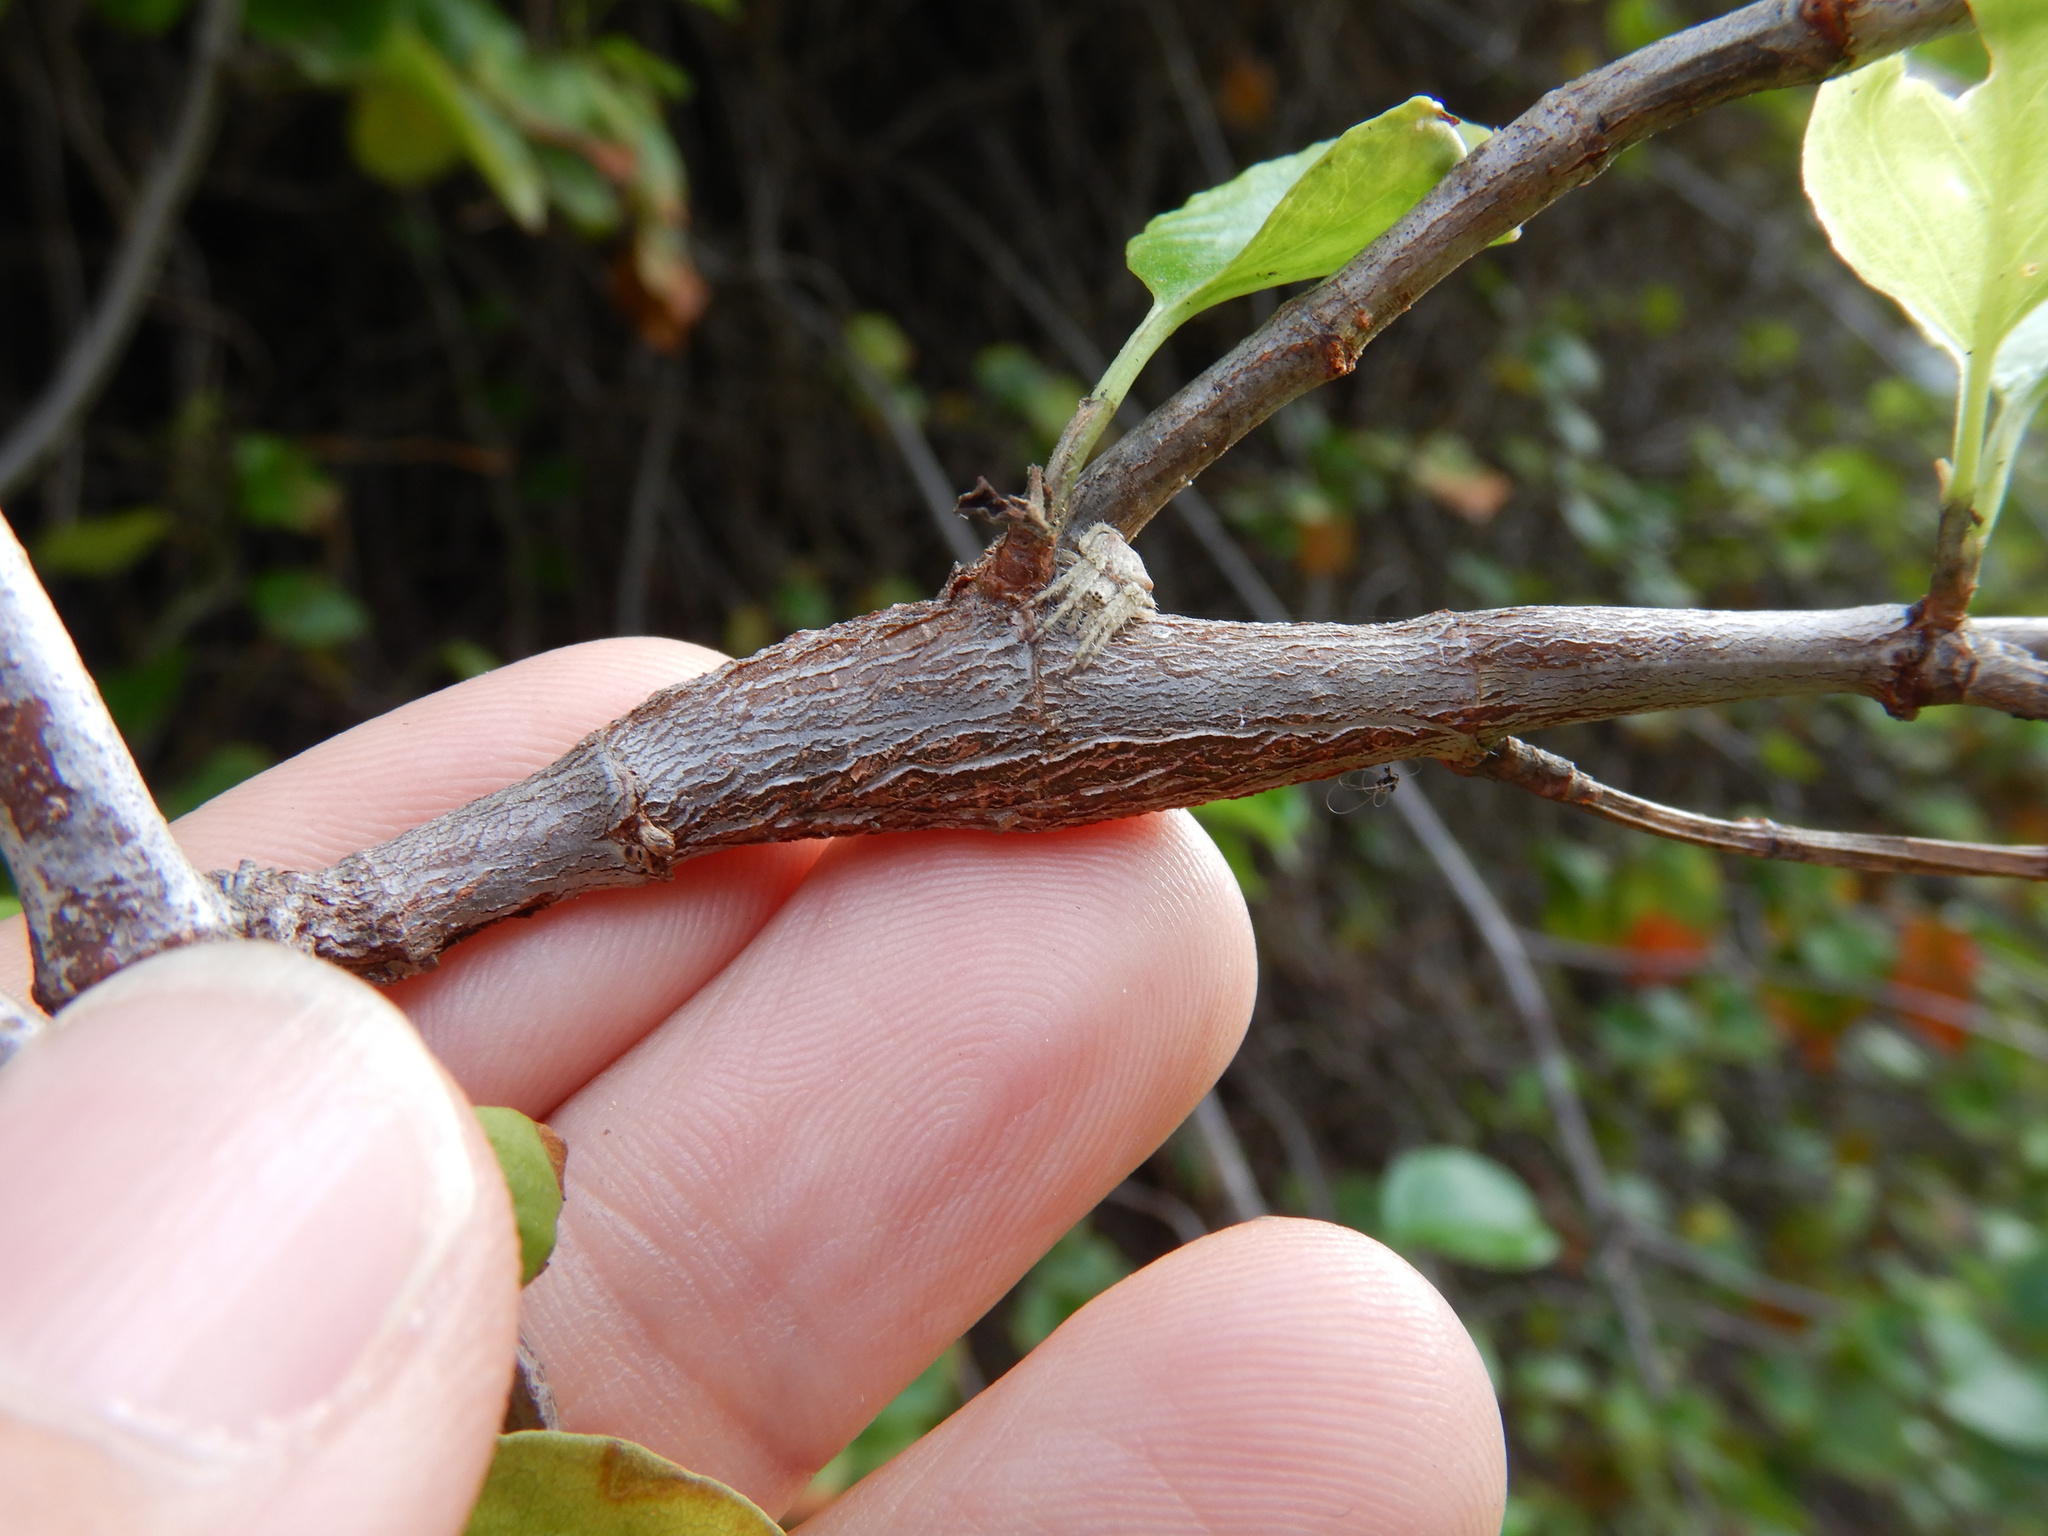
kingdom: Animalia
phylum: Arthropoda
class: Insecta
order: Lepidoptera
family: Thyrididae
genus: Morova
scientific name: Morova subfasciata
